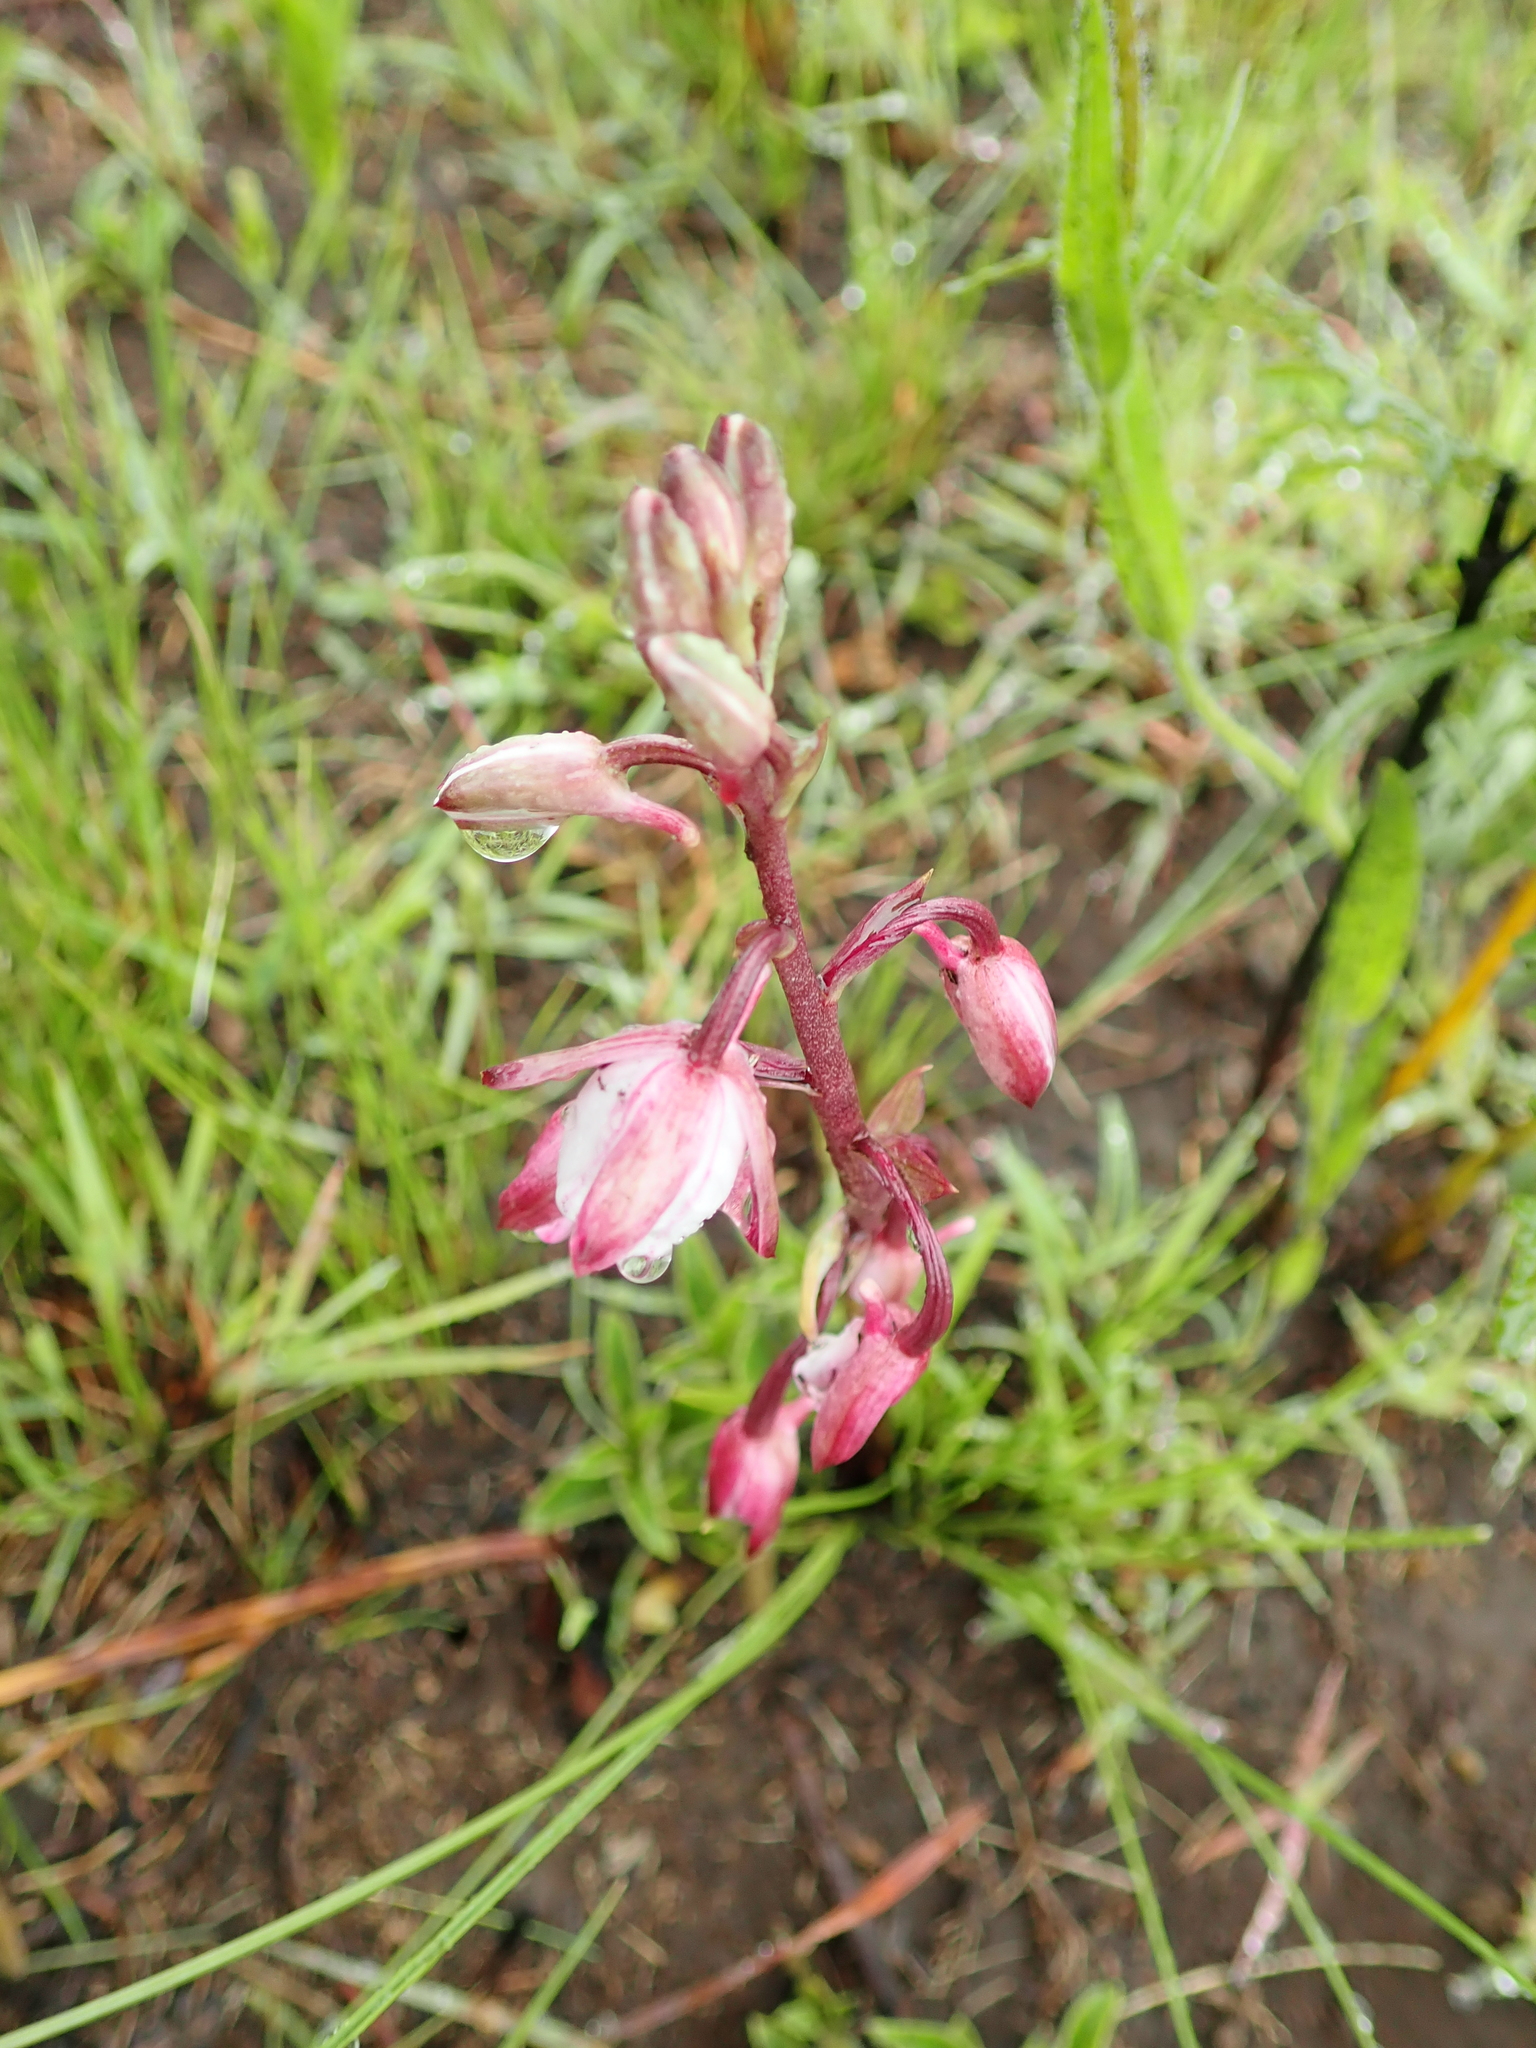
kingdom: Plantae
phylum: Tracheophyta
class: Liliopsida
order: Asparagales
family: Orchidaceae
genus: Eulophia
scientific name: Eulophia hians
